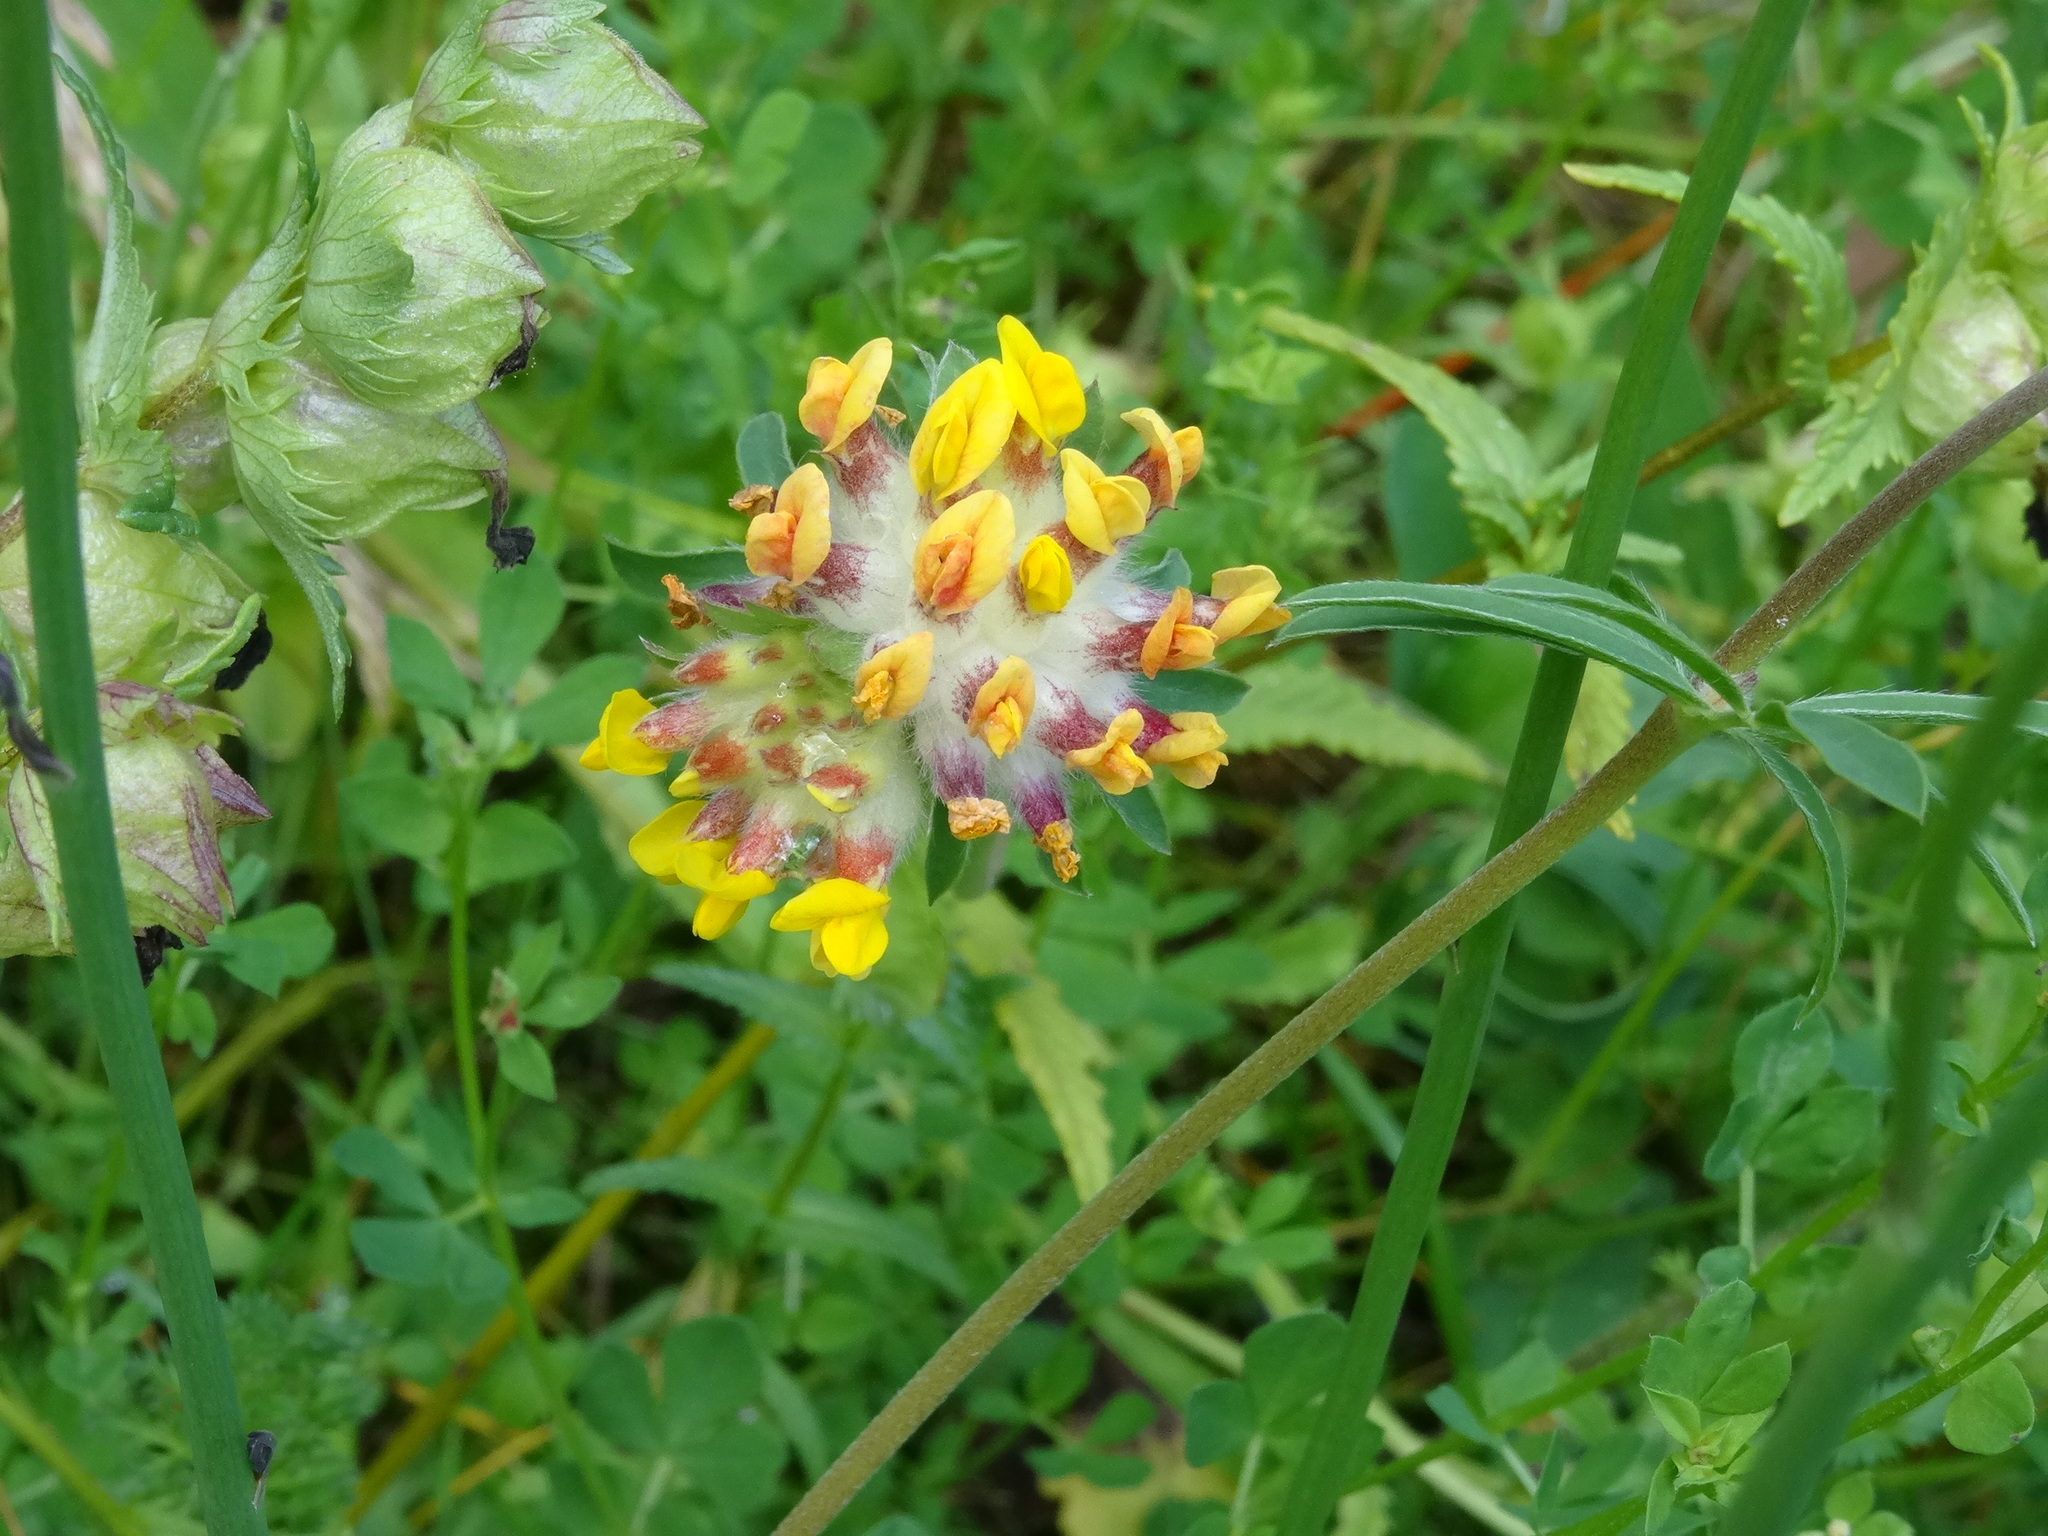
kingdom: Plantae
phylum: Tracheophyta
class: Magnoliopsida
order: Fabales
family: Fabaceae
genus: Anthyllis
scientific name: Anthyllis vulneraria
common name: Kidney vetch
